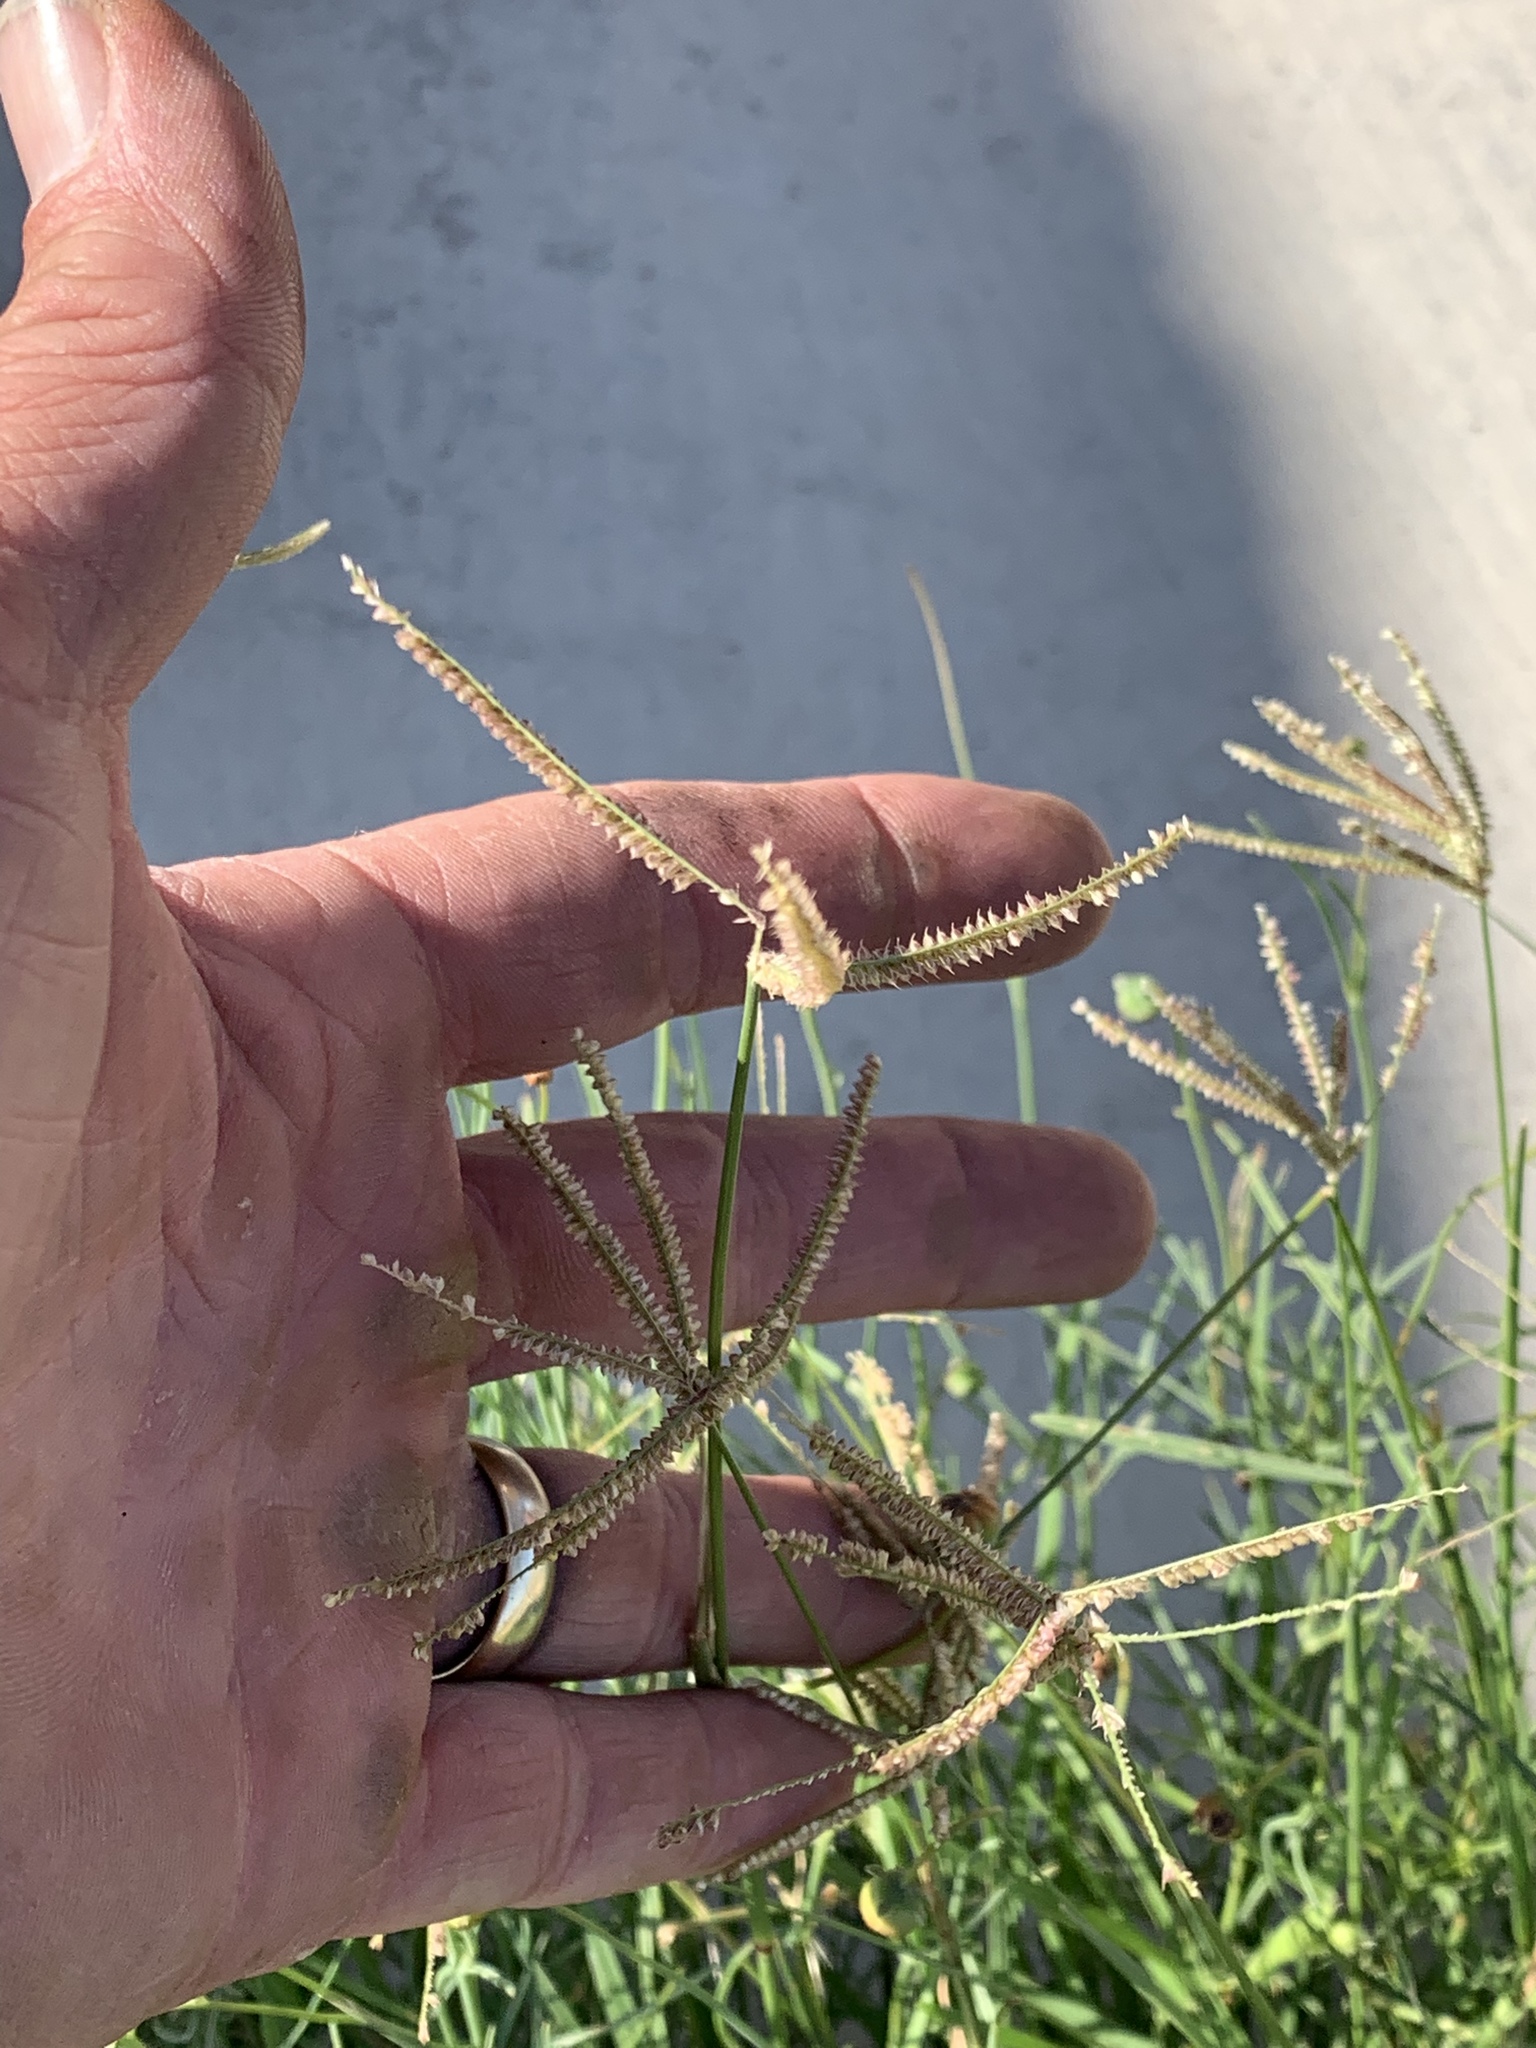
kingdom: Plantae
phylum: Tracheophyta
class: Liliopsida
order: Poales
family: Poaceae
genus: Chloris
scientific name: Chloris cucullata
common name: Hooded windmill grass
